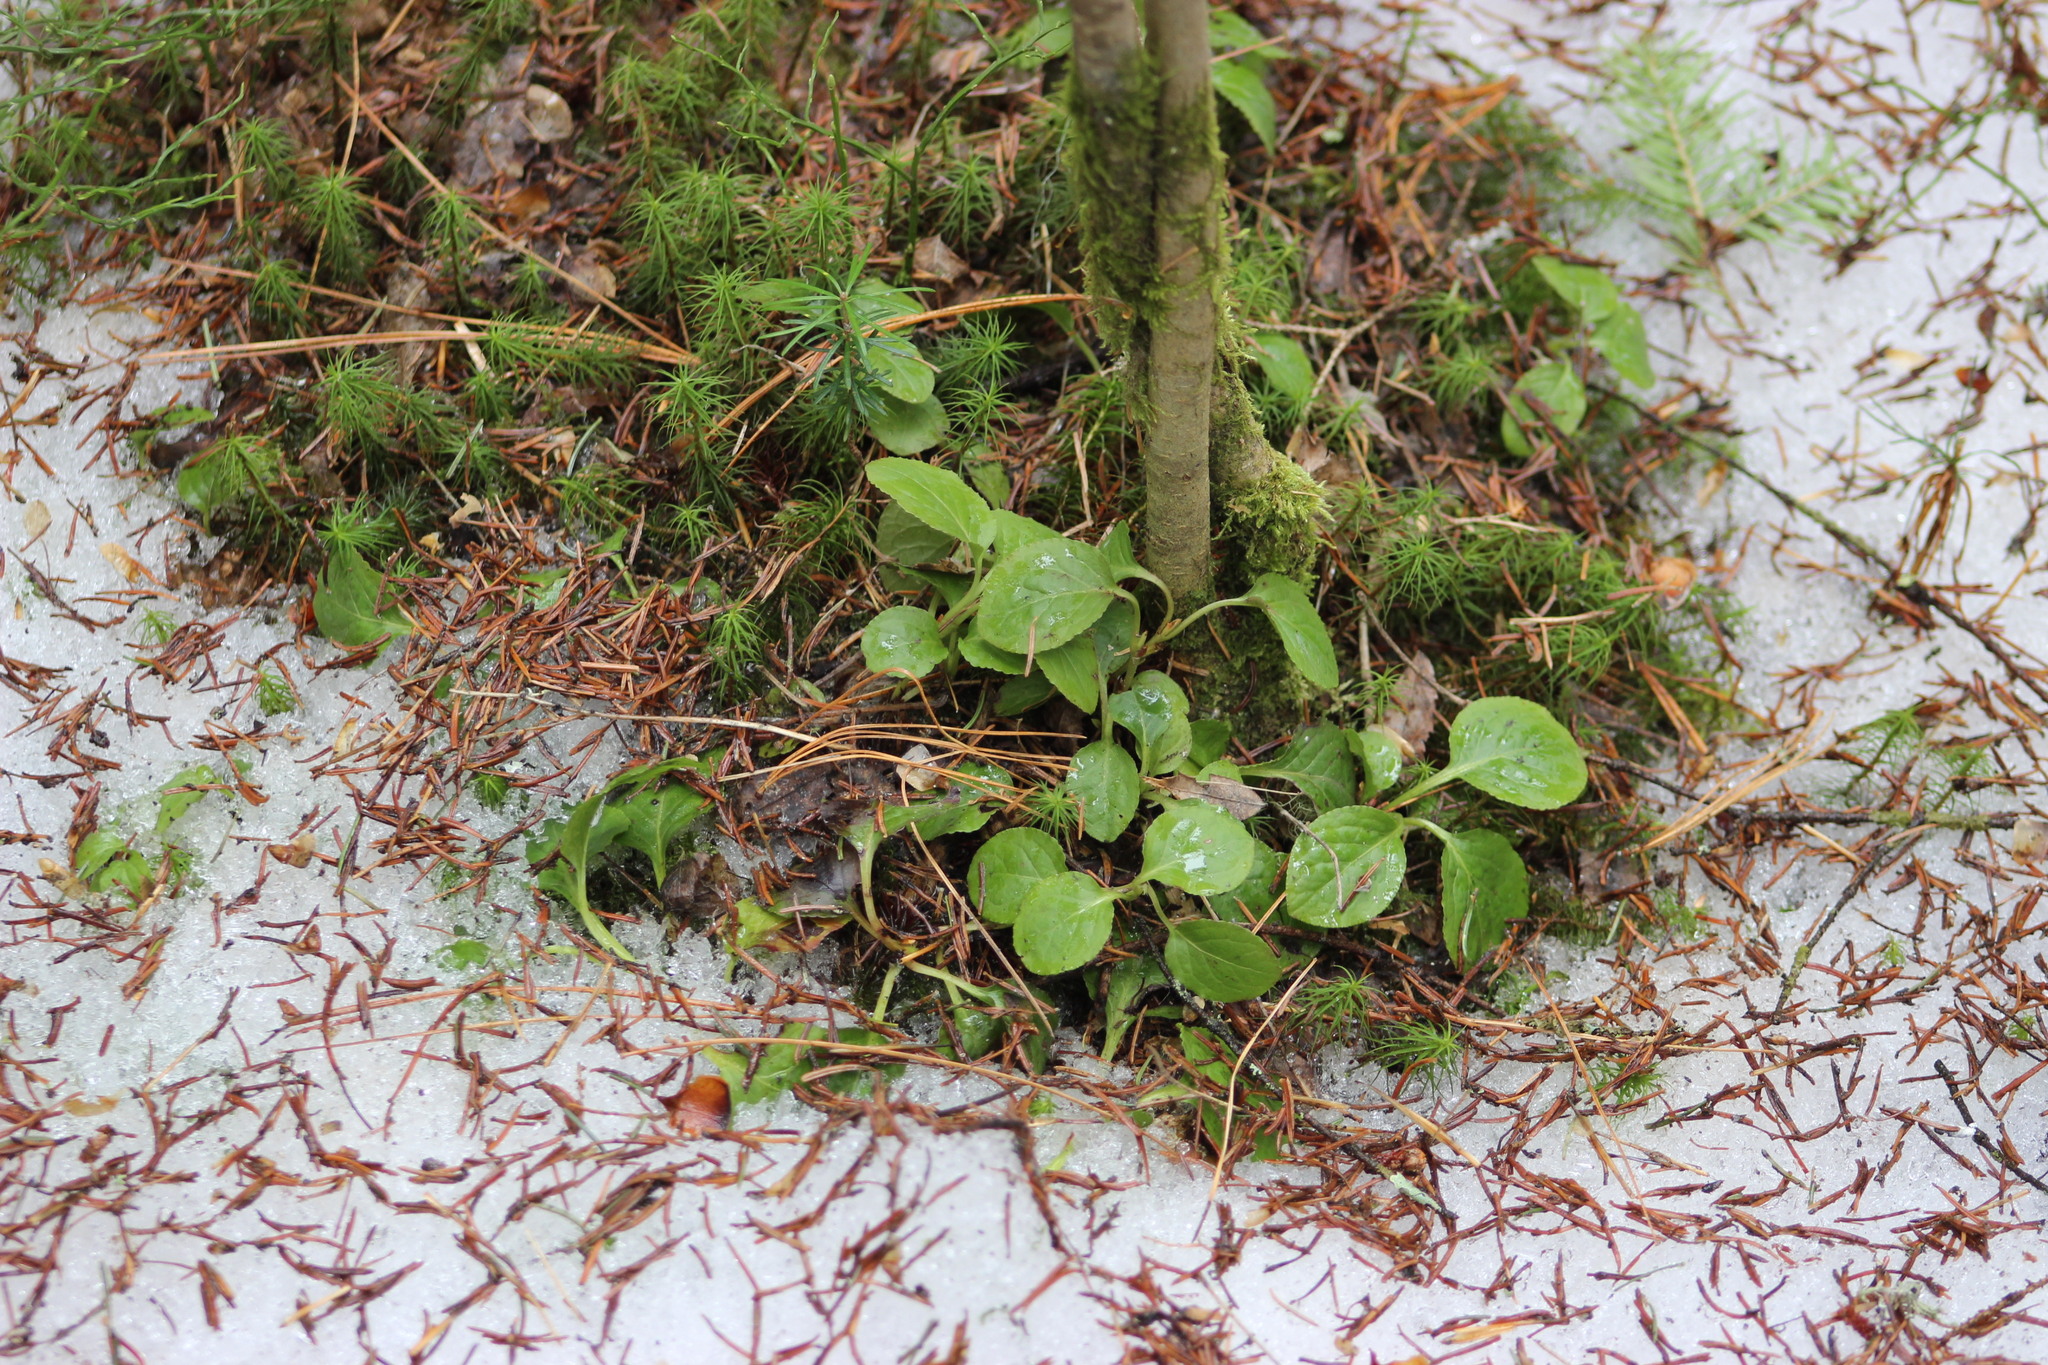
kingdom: Plantae
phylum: Tracheophyta
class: Magnoliopsida
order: Ericales
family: Ericaceae
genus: Orthilia
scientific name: Orthilia secunda
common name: One-sided orthilia
